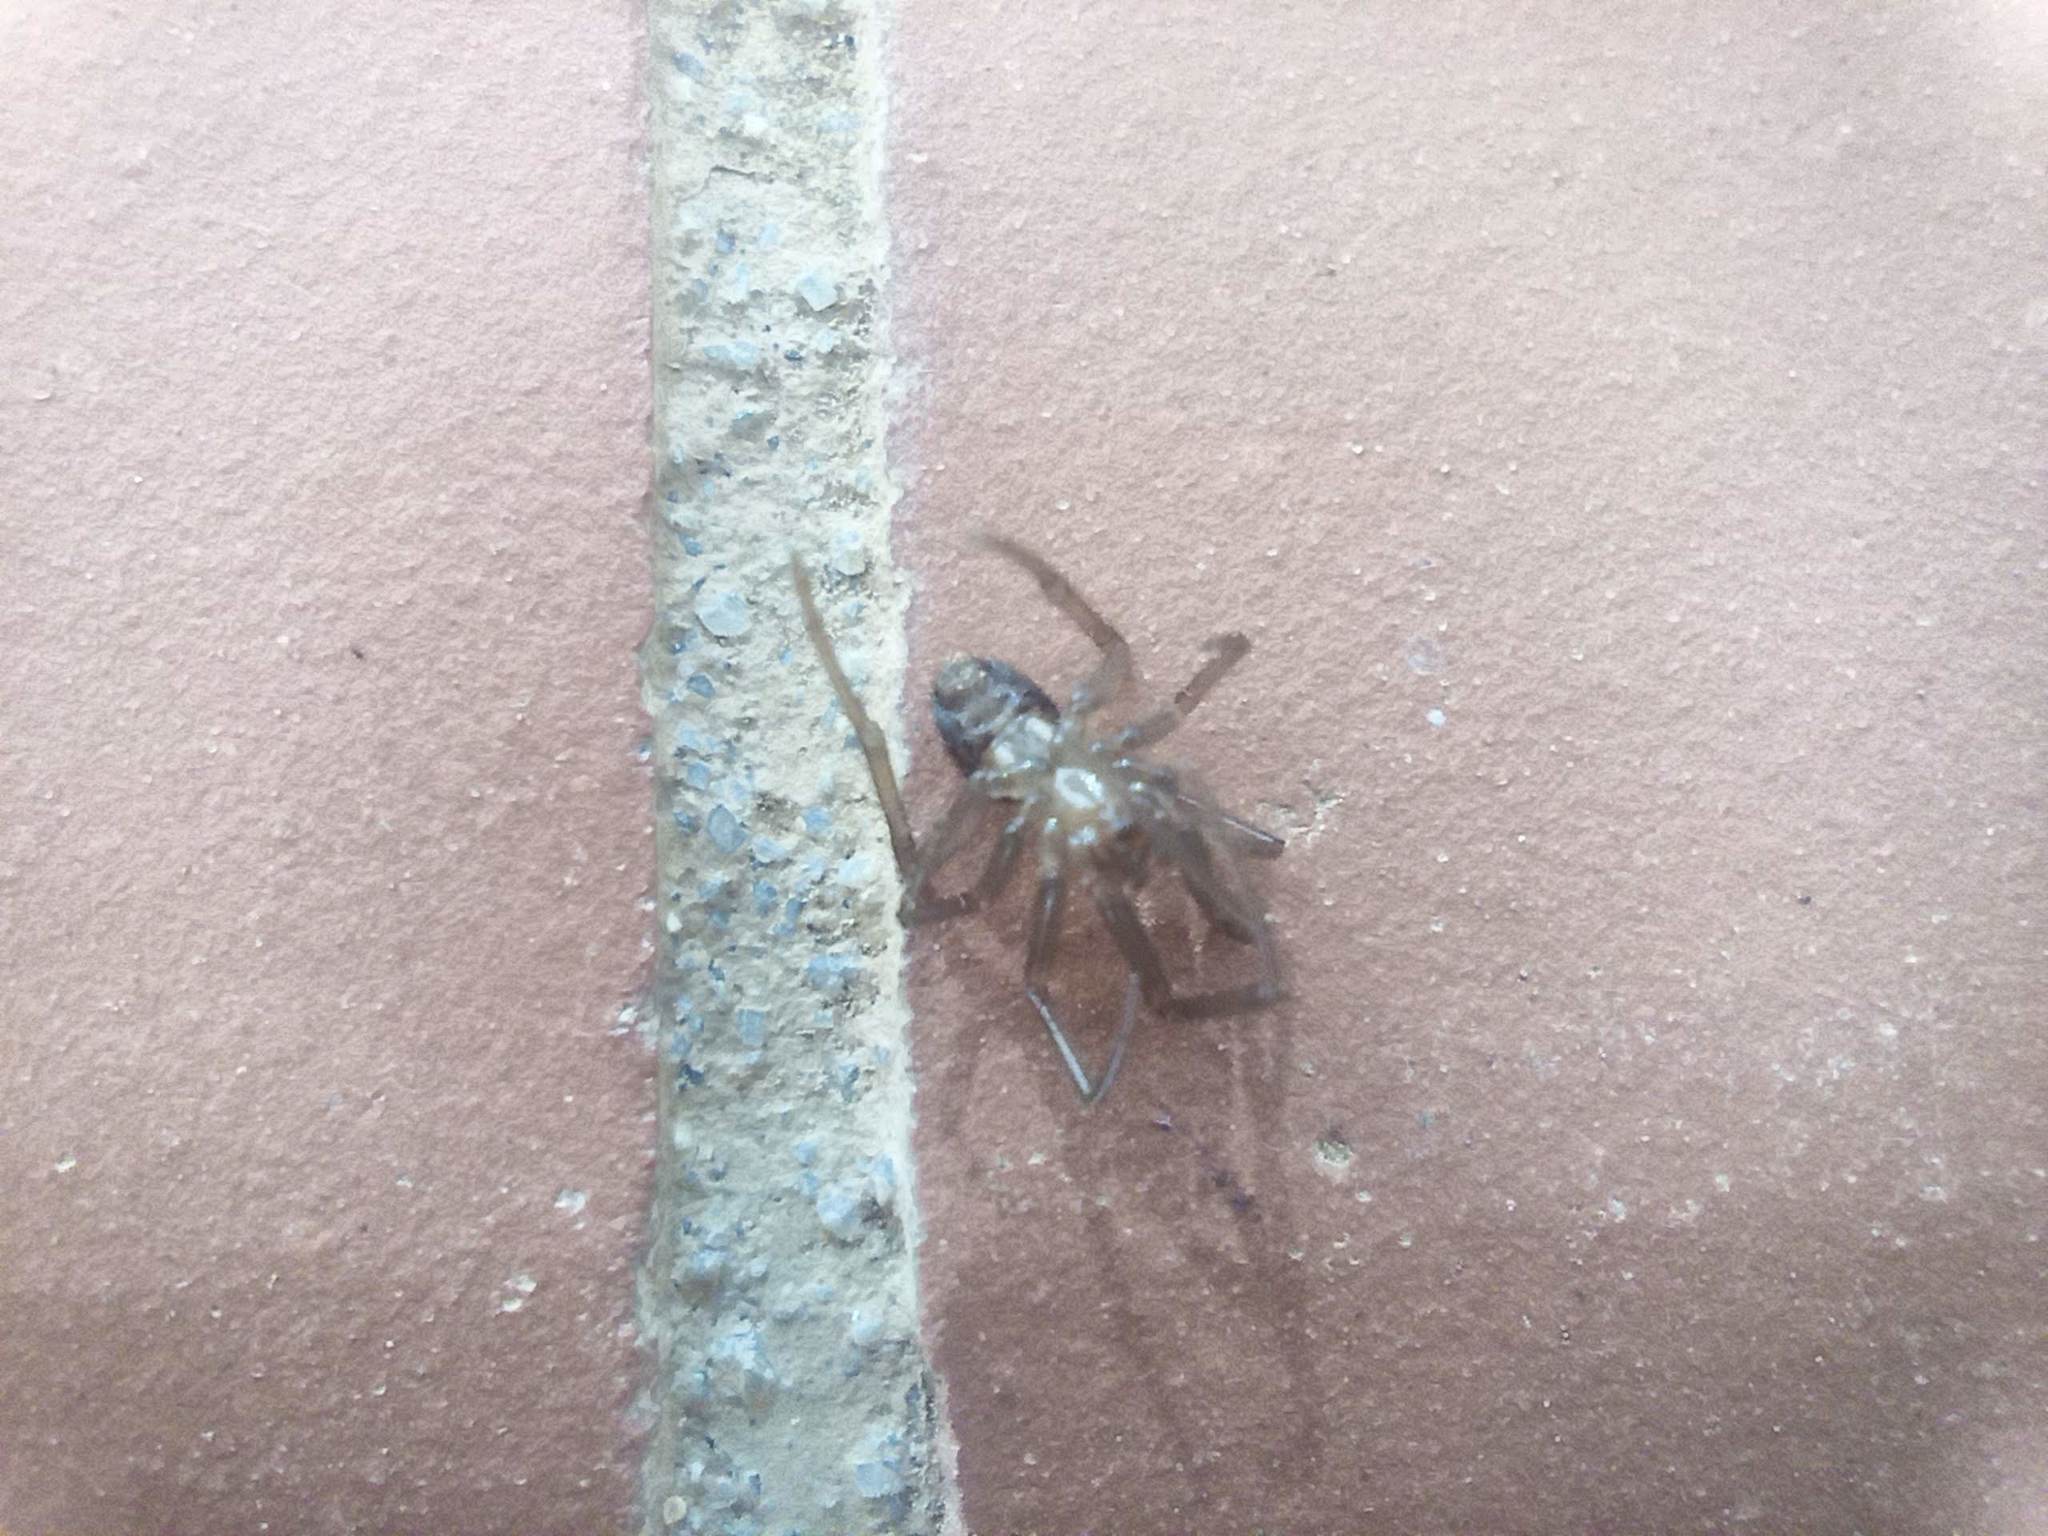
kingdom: Animalia
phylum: Arthropoda
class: Arachnida
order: Araneae
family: Theridiidae
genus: Steatoda
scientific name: Steatoda grossa
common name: False black widow
